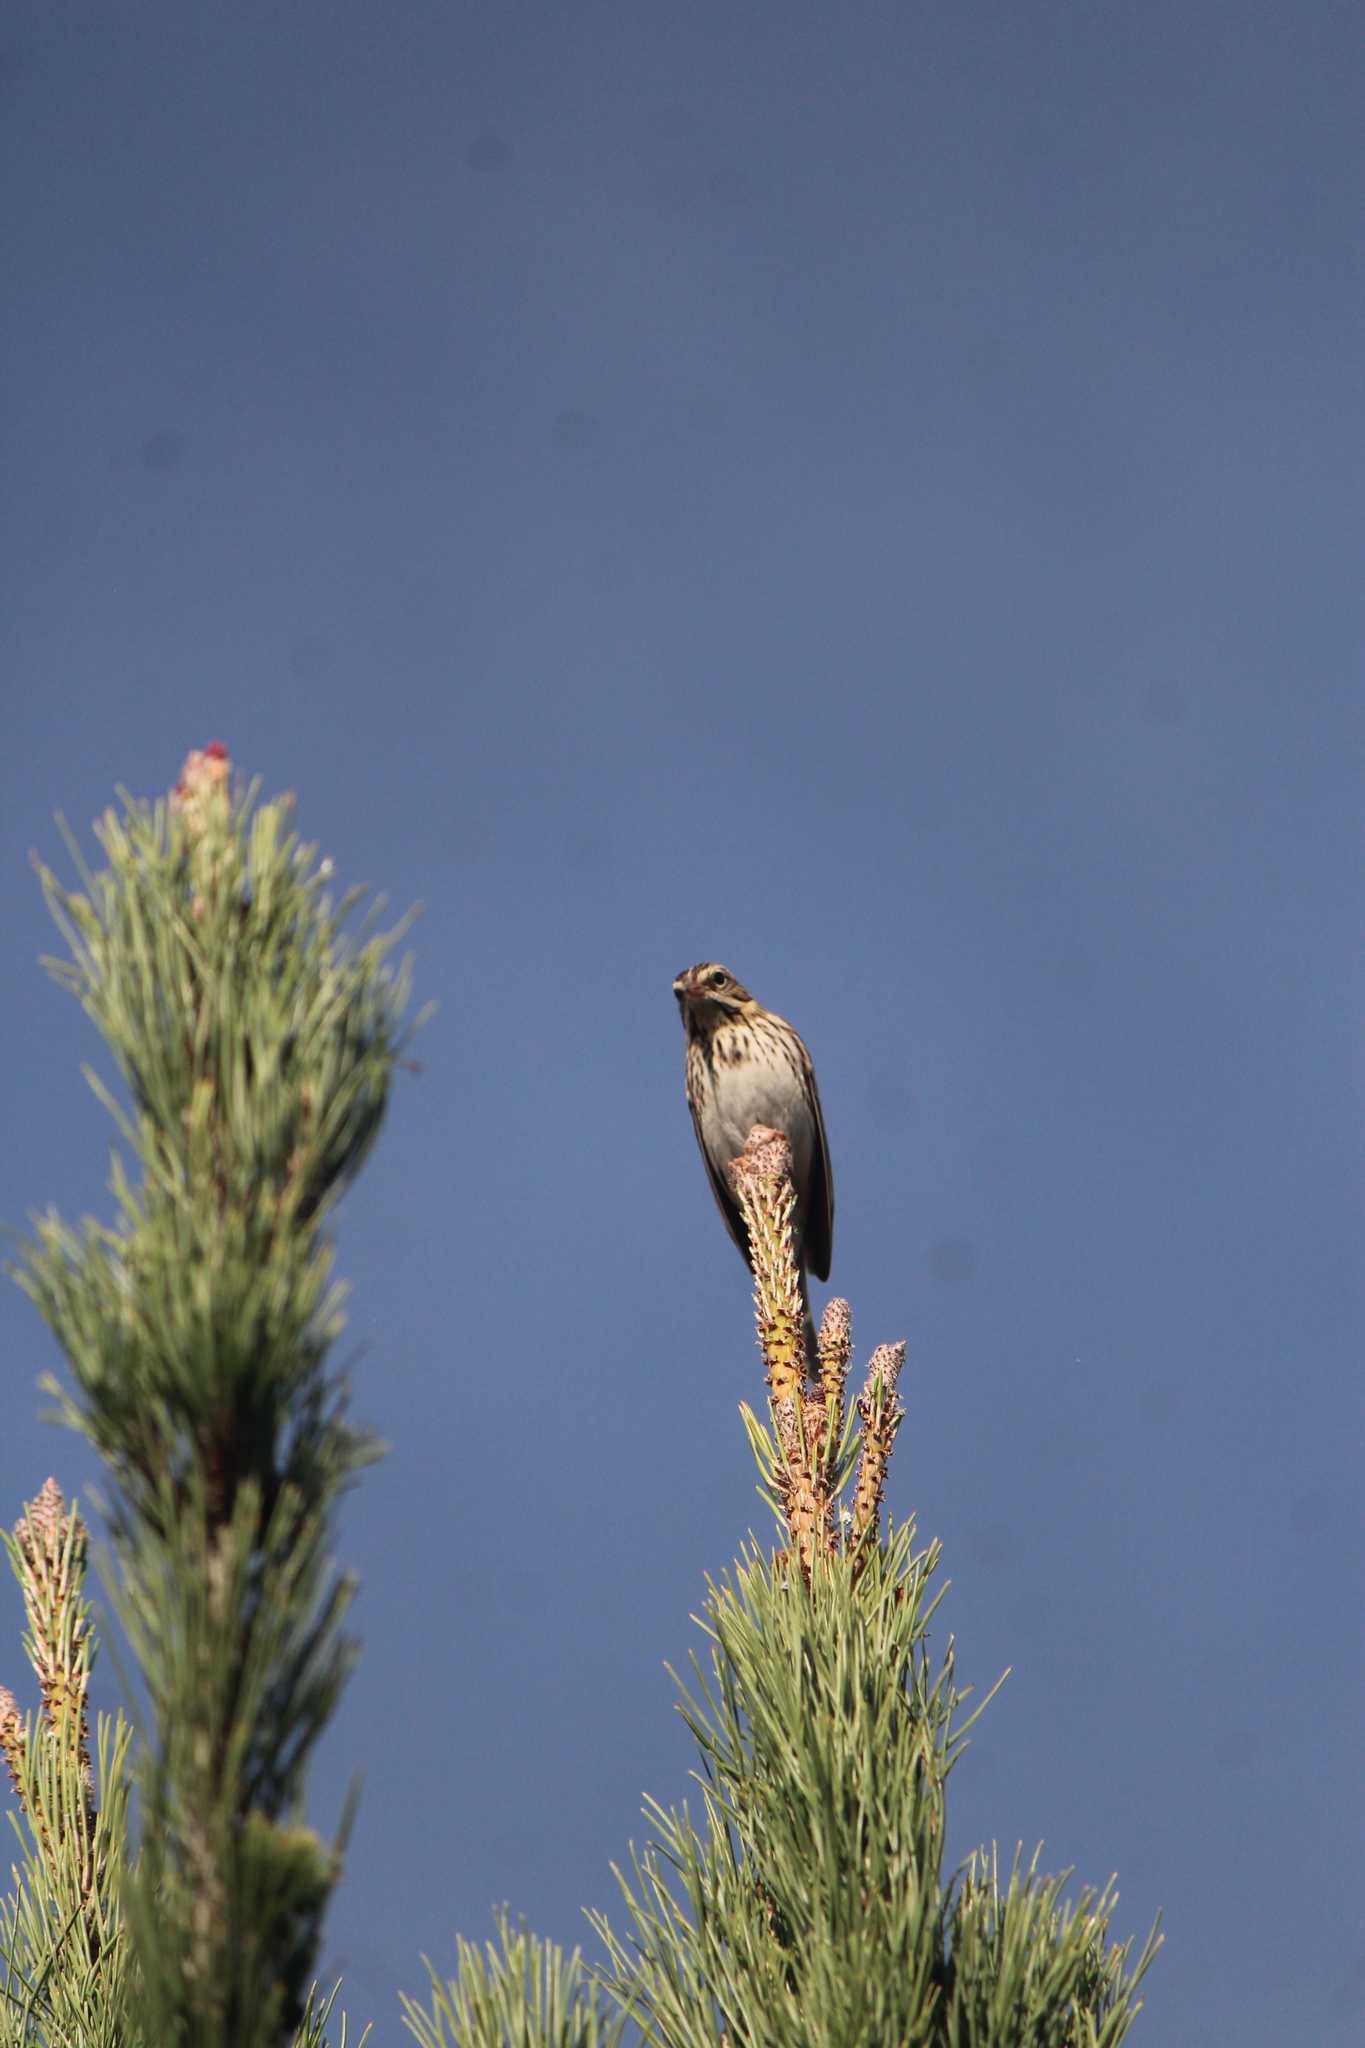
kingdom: Animalia
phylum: Chordata
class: Aves
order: Passeriformes
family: Passerellidae
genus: Passerculus
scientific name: Passerculus sandwichensis
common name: Savannah sparrow
